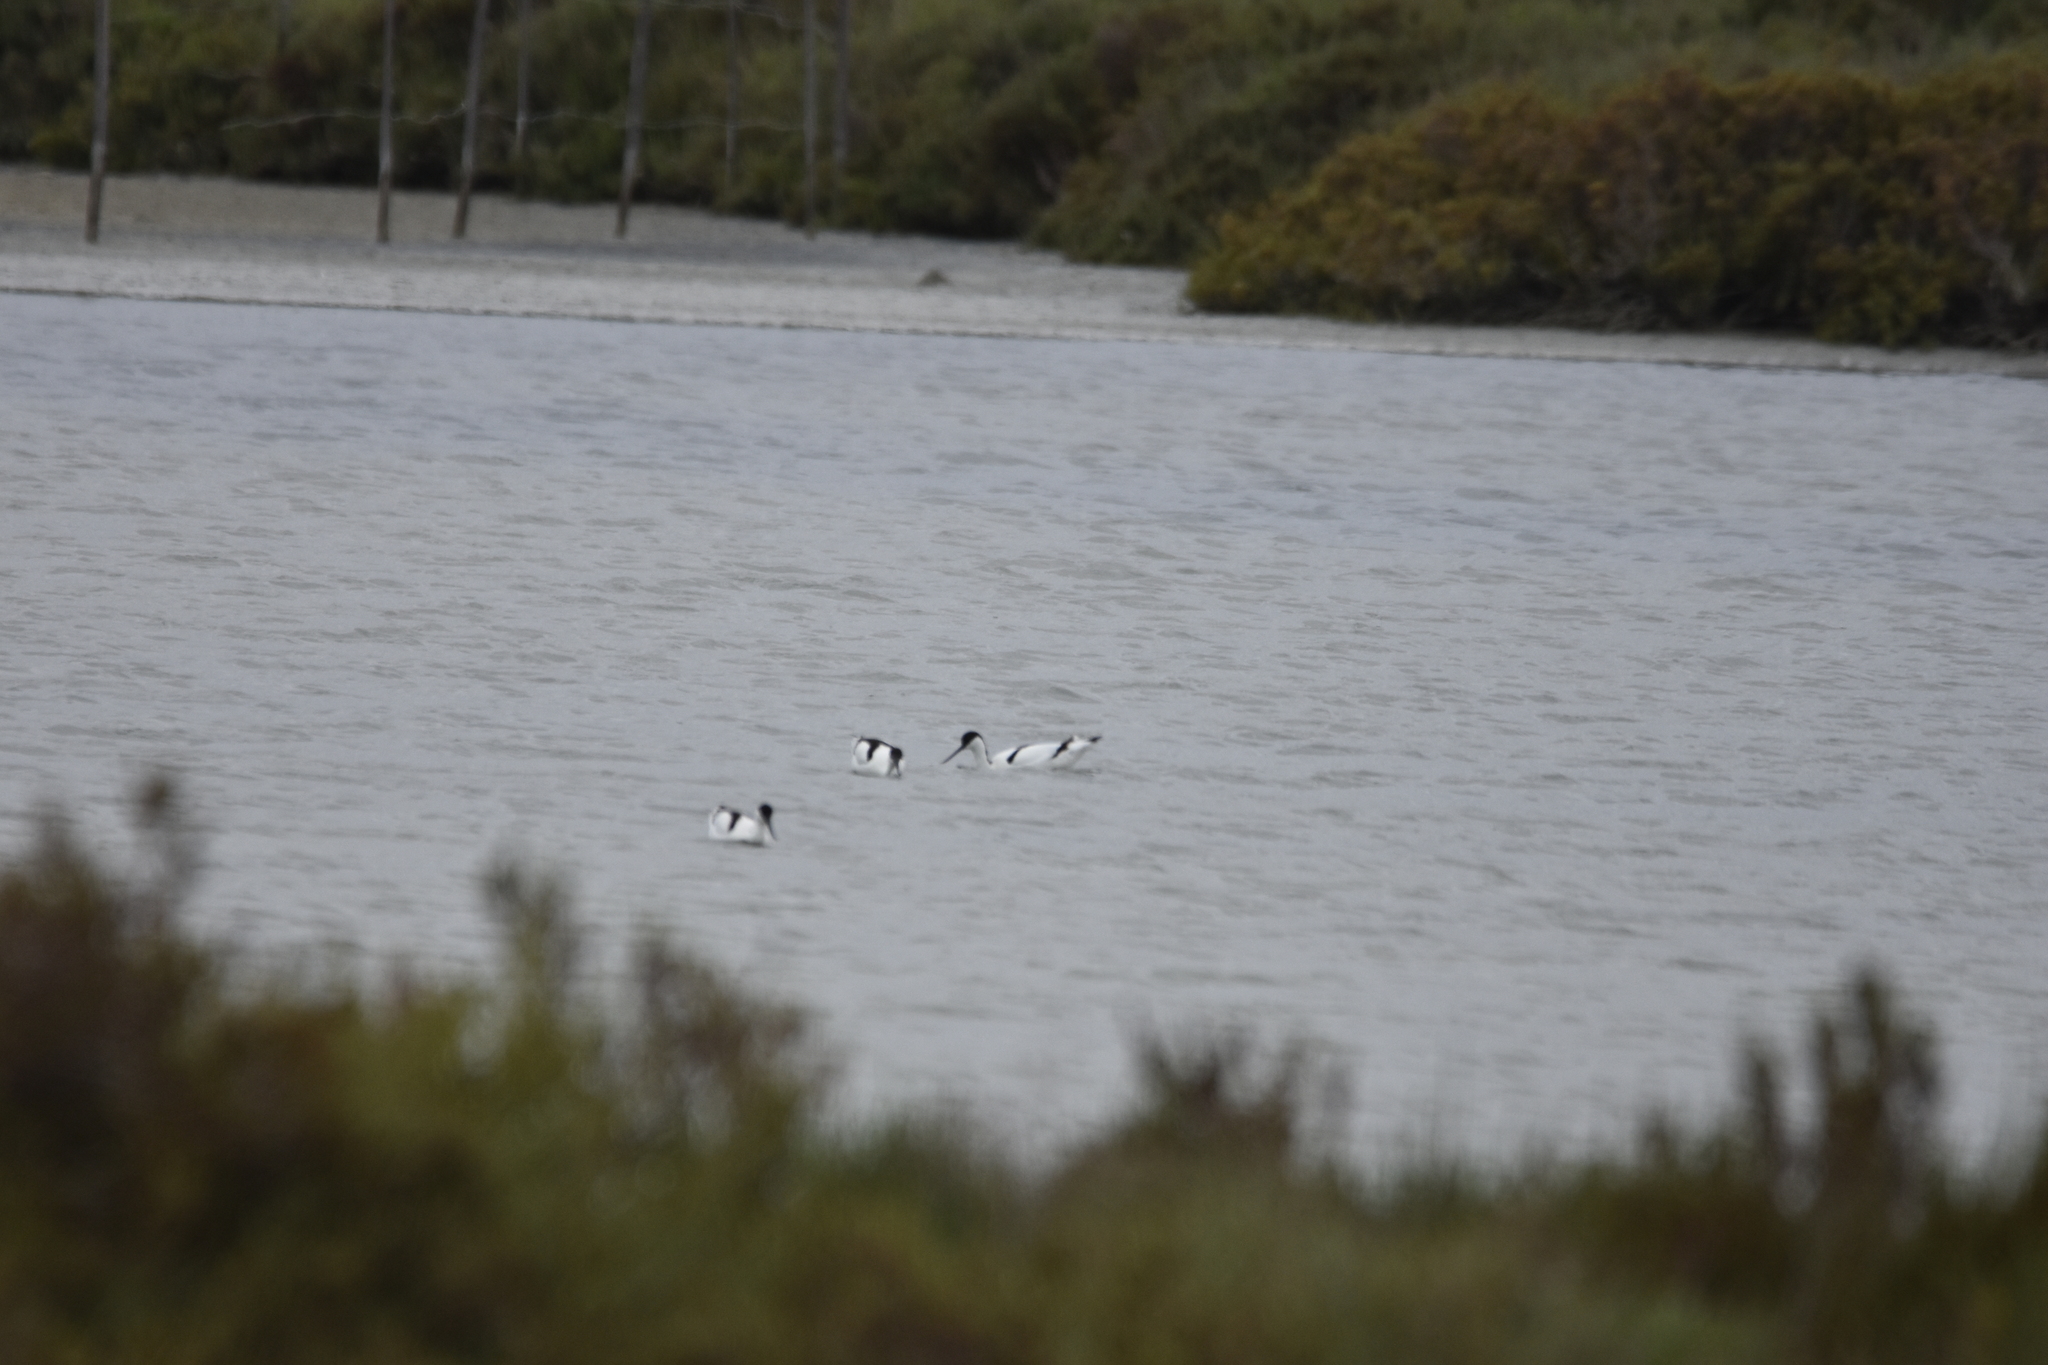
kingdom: Animalia
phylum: Chordata
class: Aves
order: Charadriiformes
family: Recurvirostridae
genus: Recurvirostra
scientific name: Recurvirostra avosetta
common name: Pied avocet
